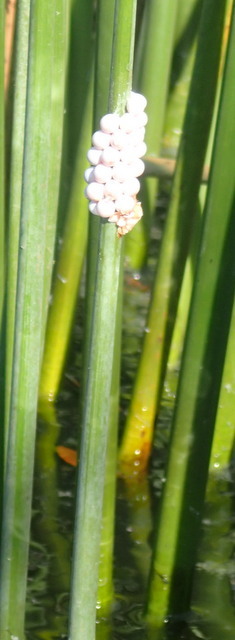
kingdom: Animalia
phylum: Mollusca
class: Gastropoda
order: Architaenioglossa
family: Ampullariidae
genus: Pomacea
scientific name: Pomacea paludosa
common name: Florida applesnail
